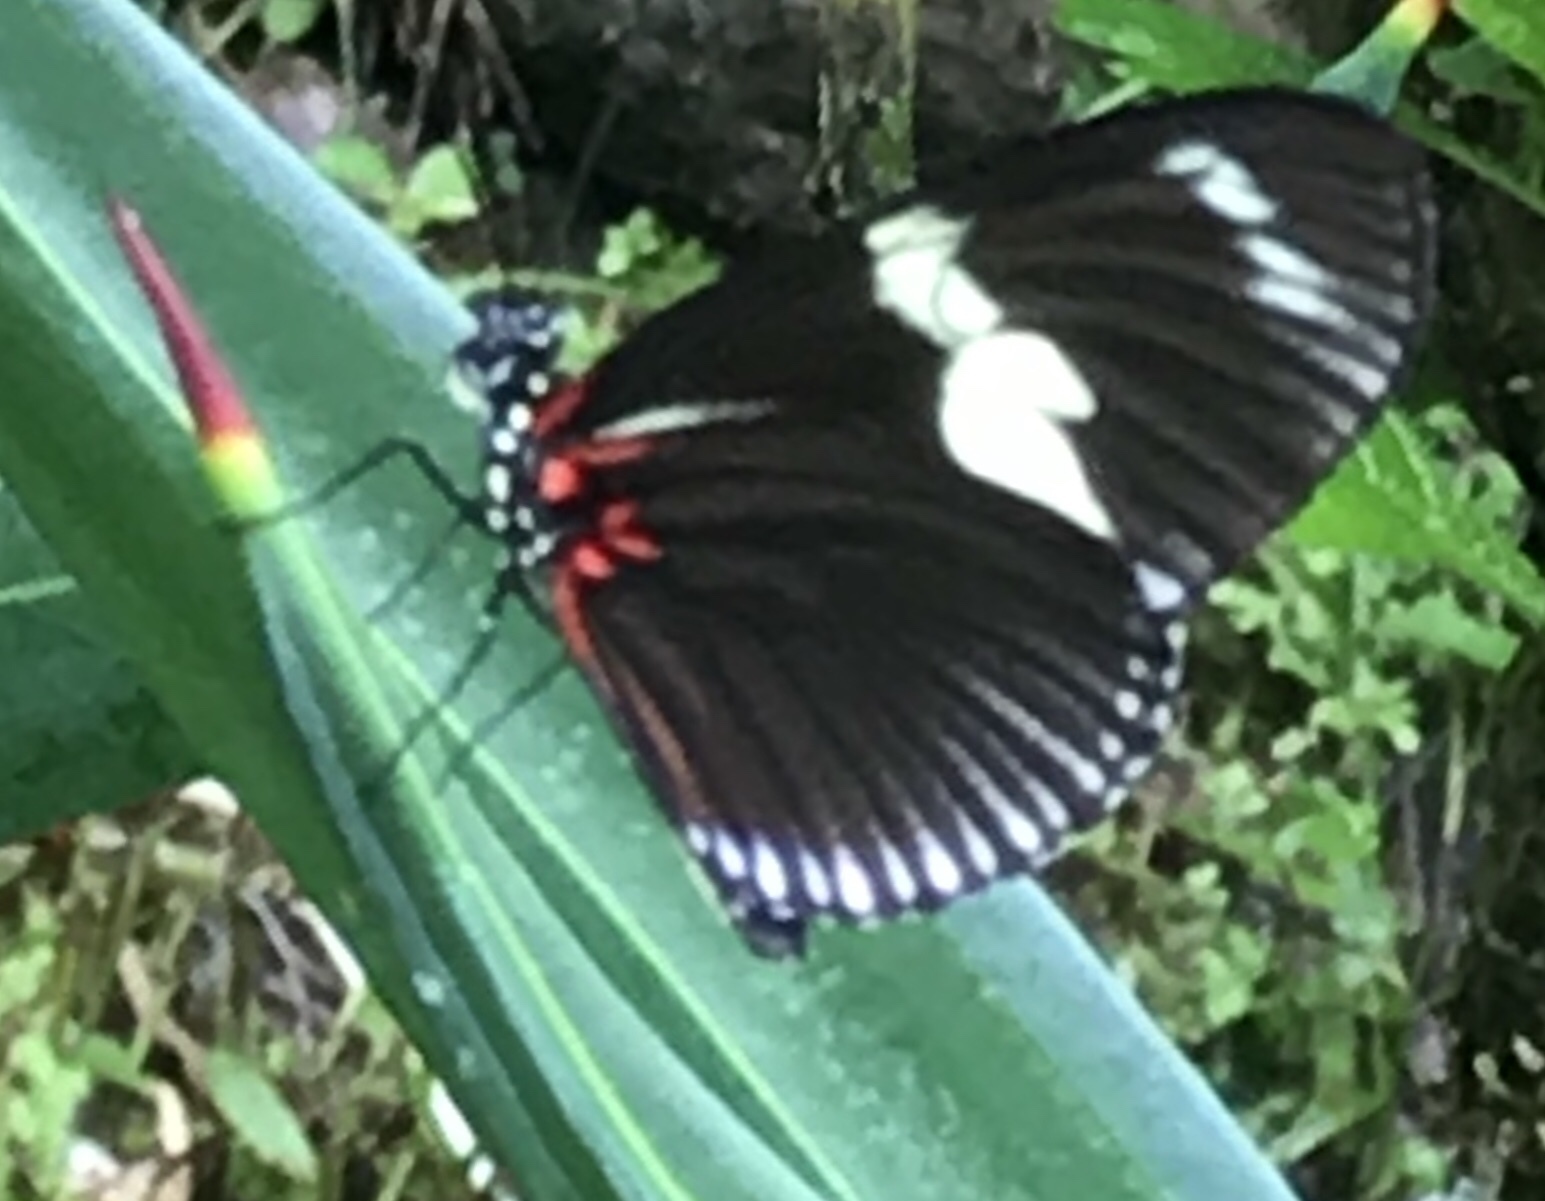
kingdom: Animalia
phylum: Arthropoda
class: Insecta
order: Lepidoptera
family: Nymphalidae
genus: Heliconius
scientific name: Heliconius doris
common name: Doris longwing
